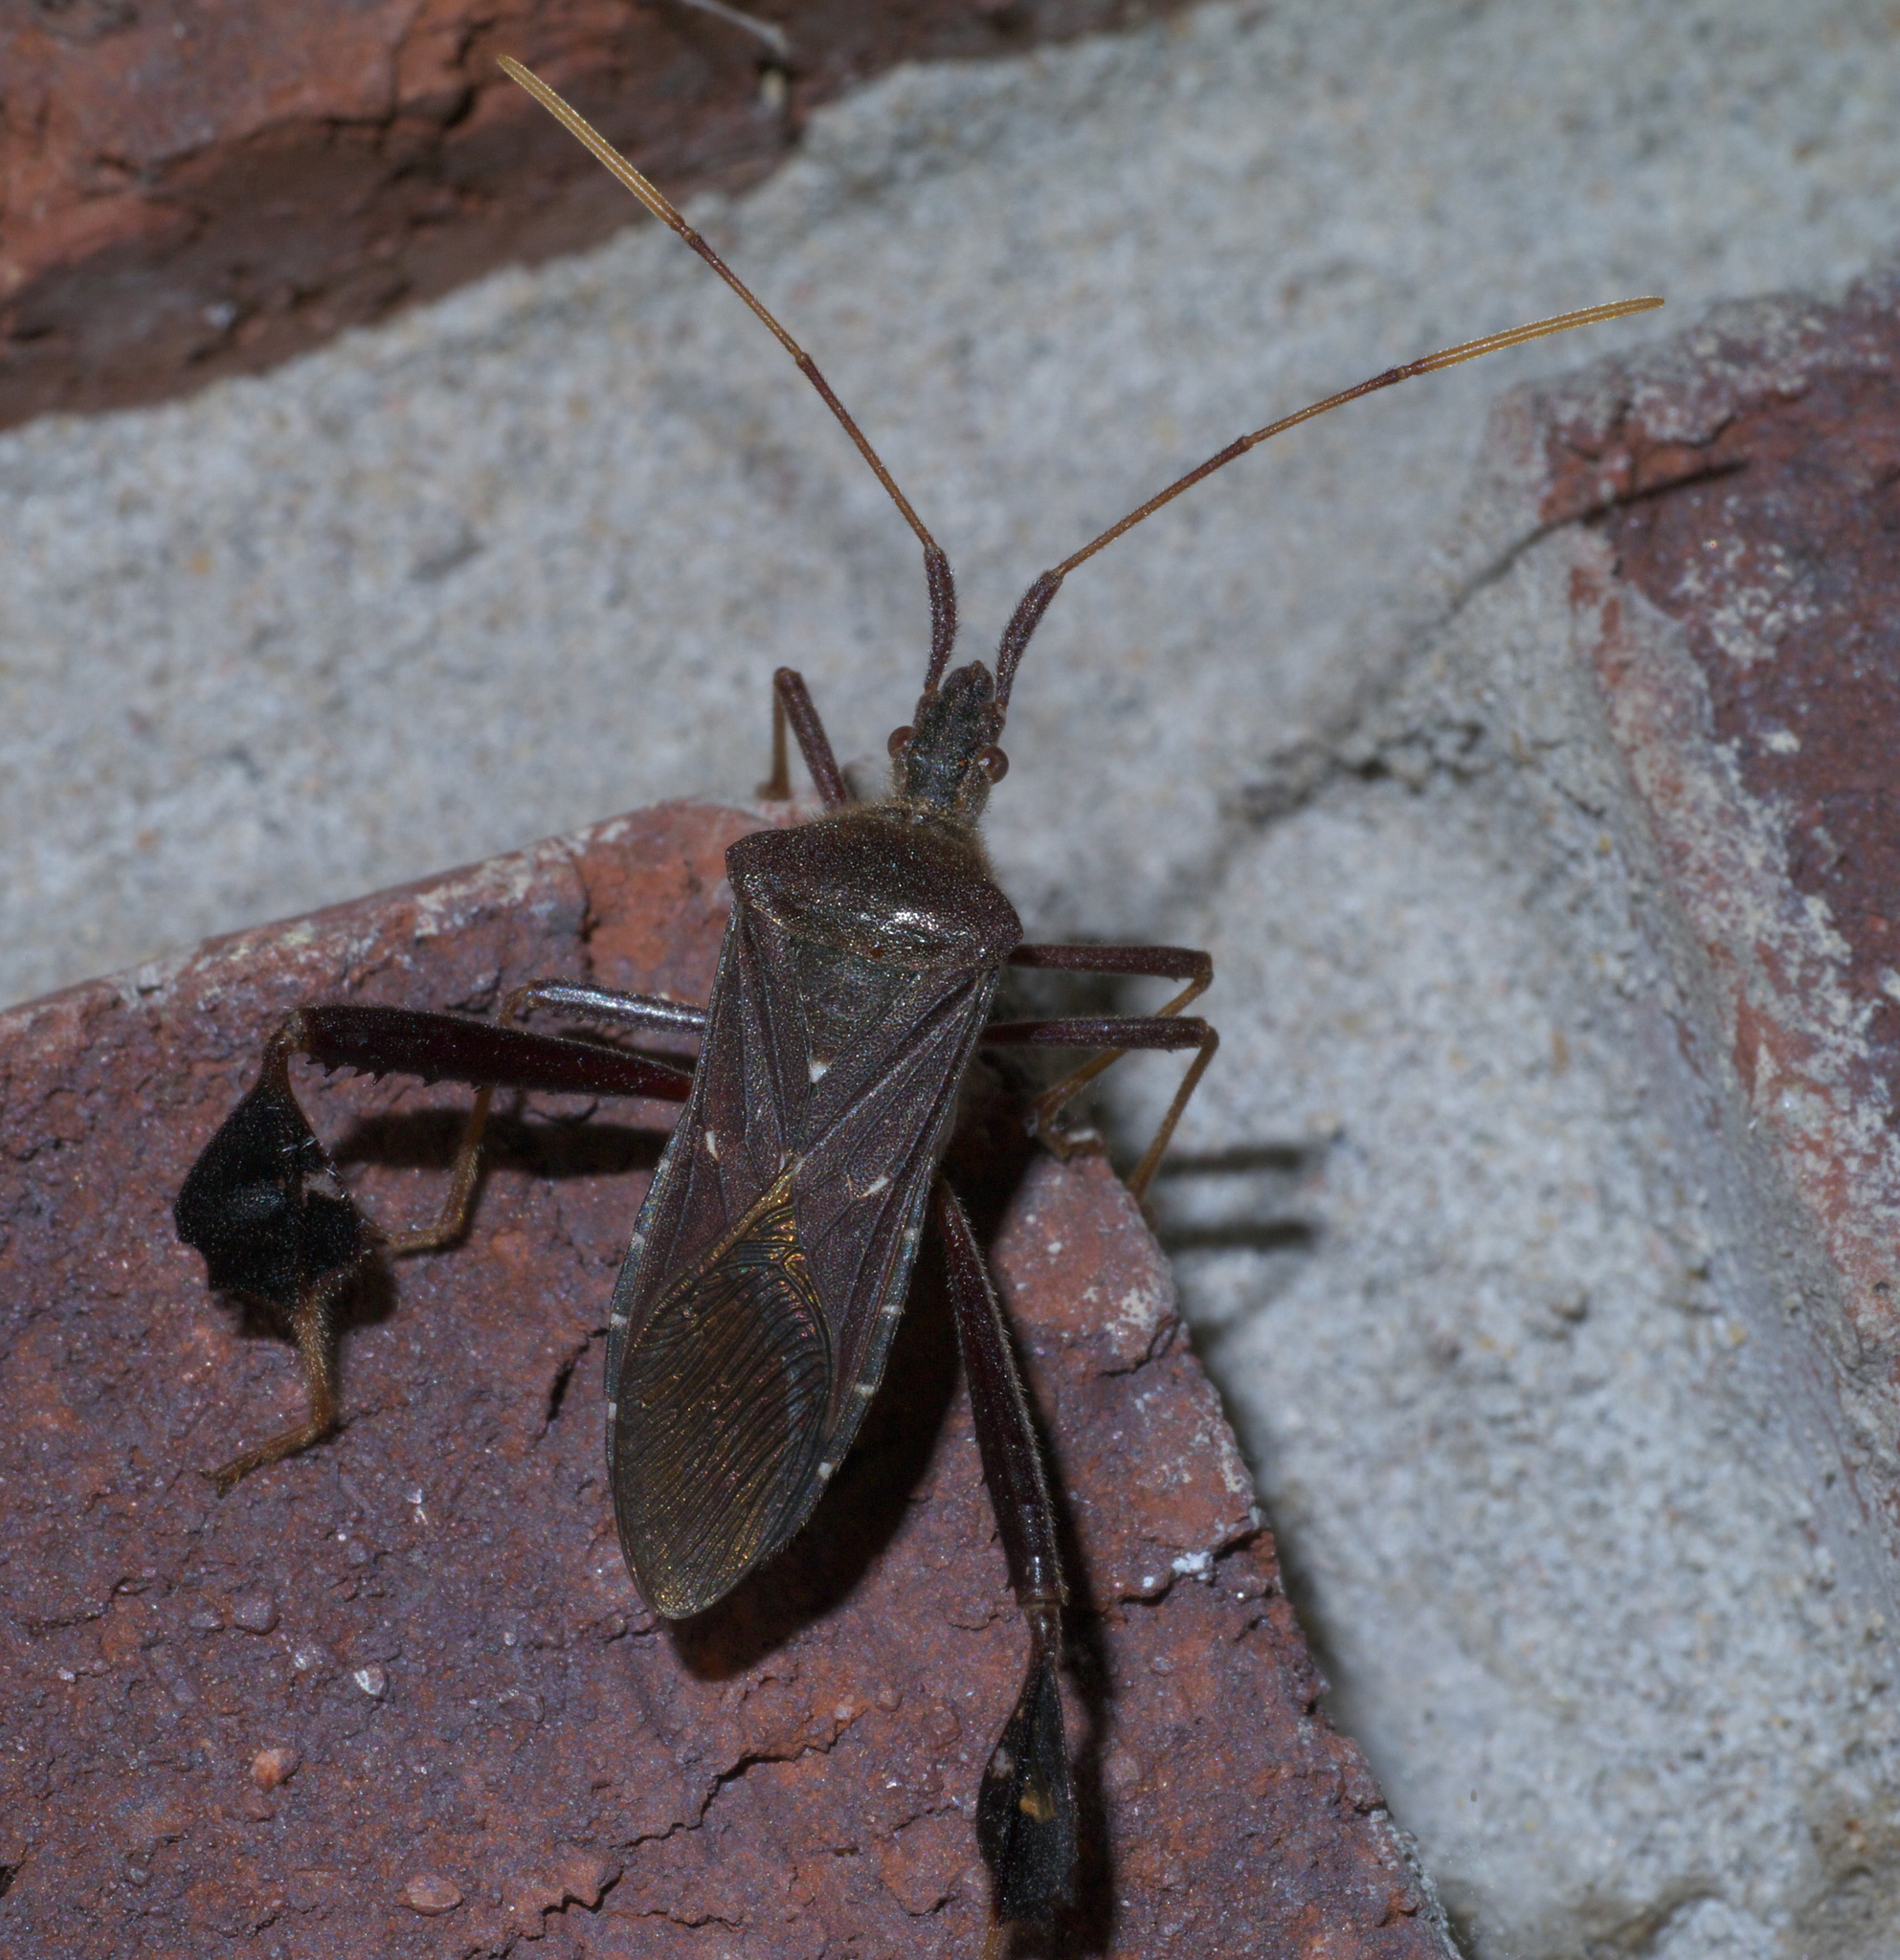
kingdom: Animalia
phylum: Arthropoda
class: Insecta
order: Hemiptera
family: Coreidae
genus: Leptoglossus
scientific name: Leptoglossus oppositus
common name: Northern leaf-footed bug
